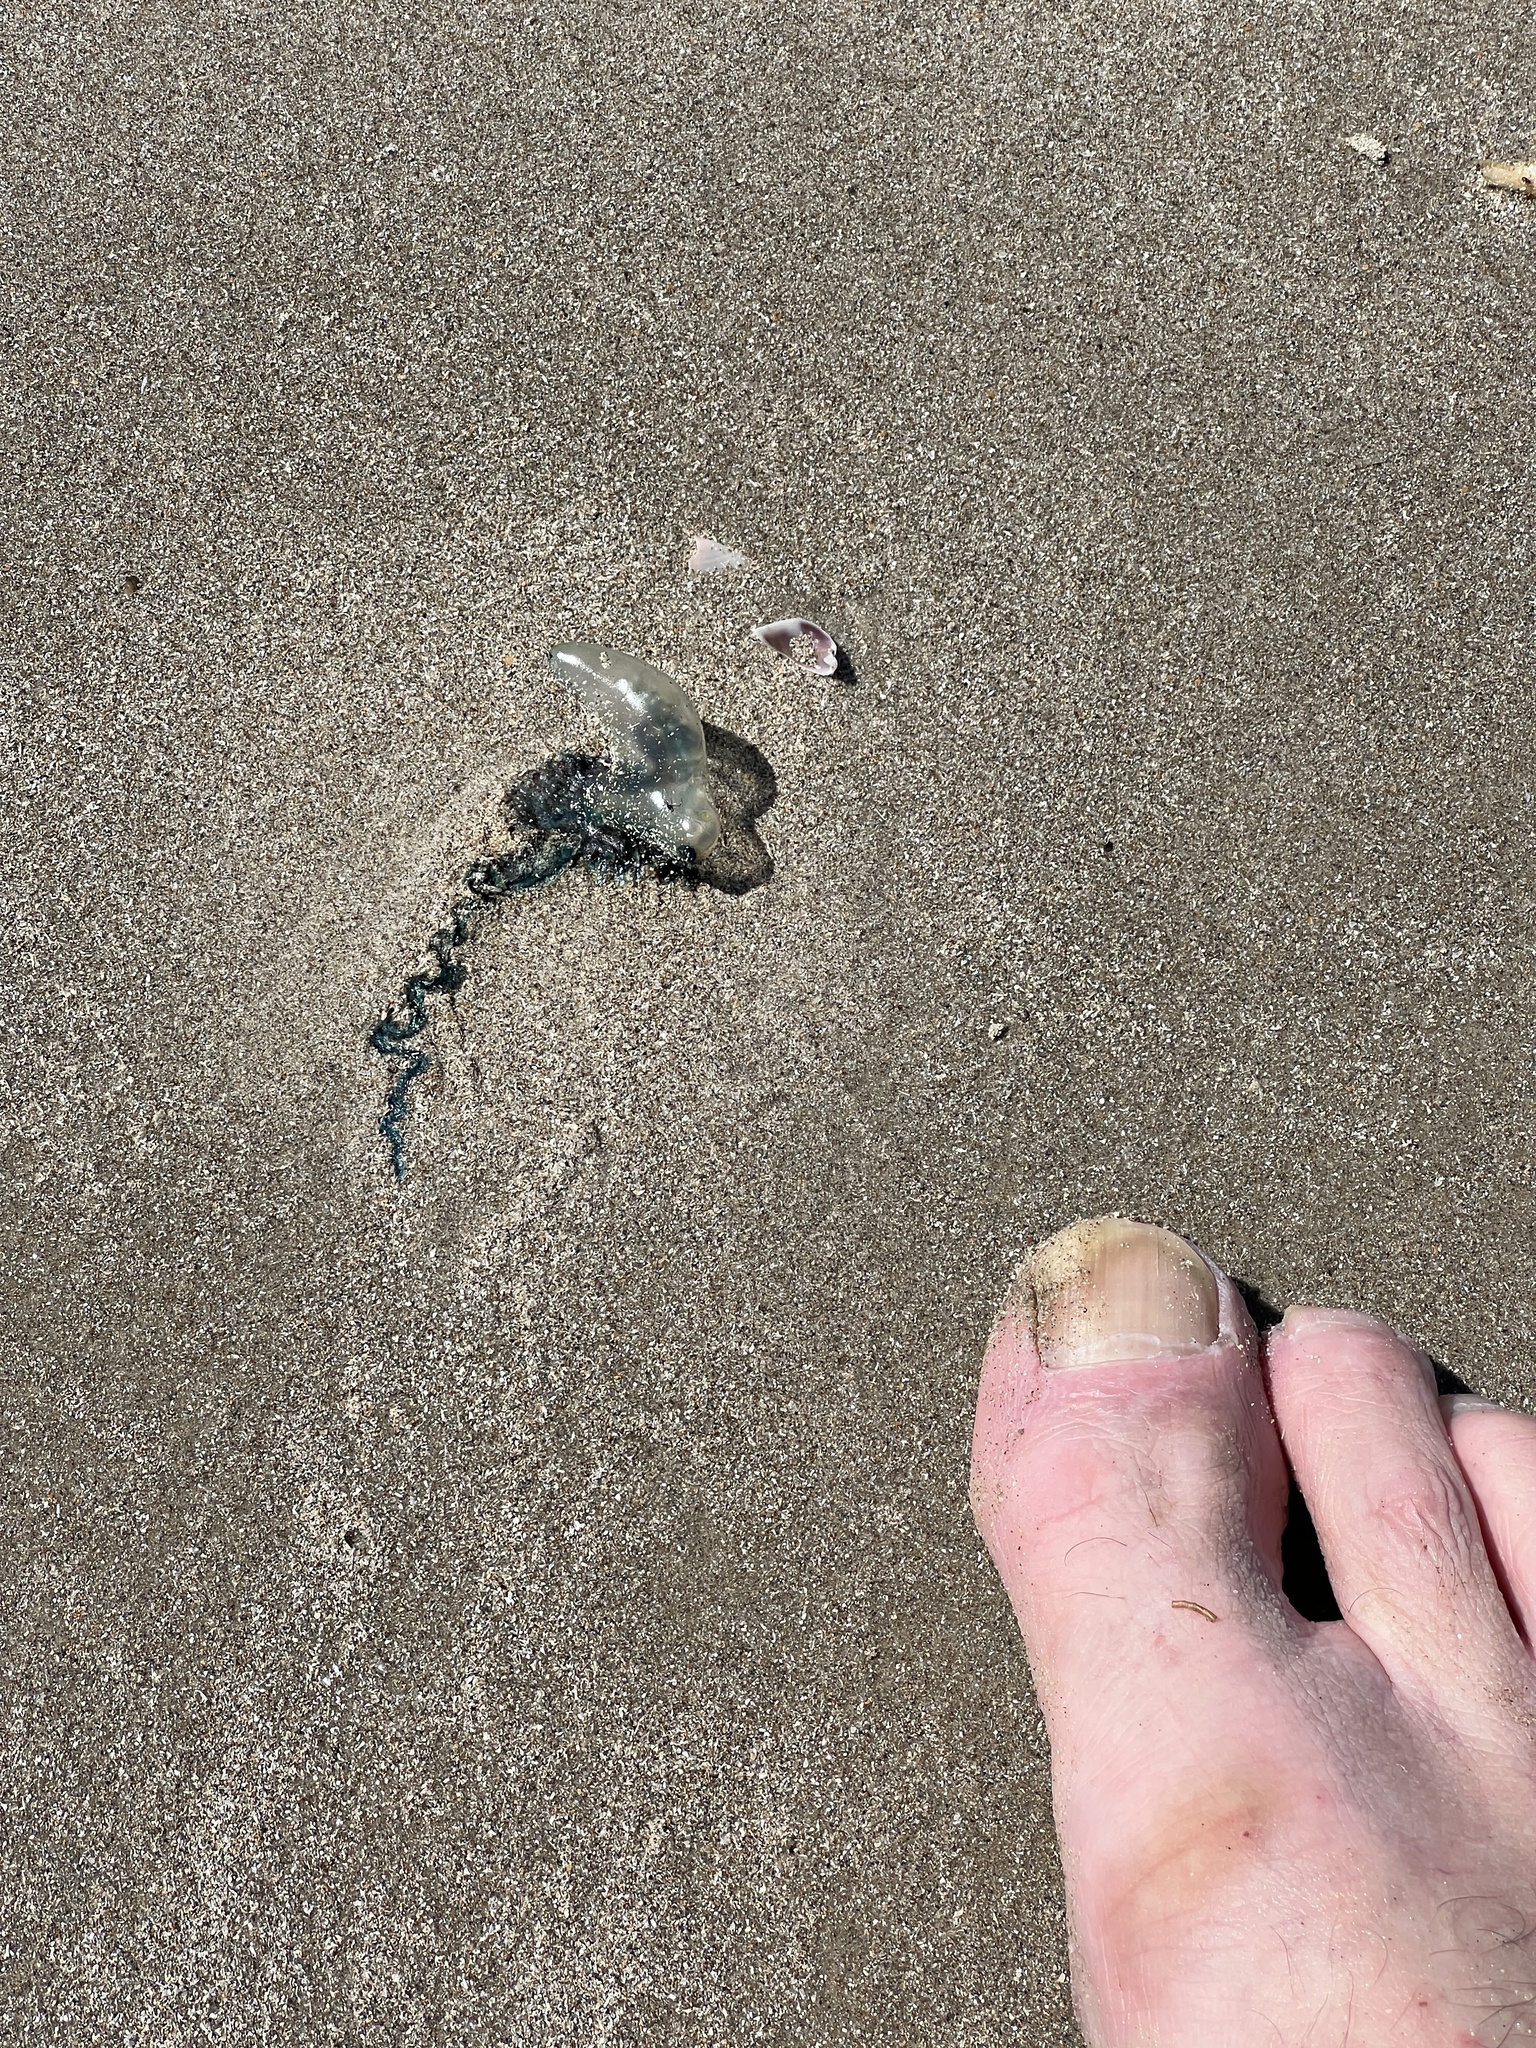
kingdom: Animalia
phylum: Cnidaria
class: Hydrozoa
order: Siphonophorae
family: Physaliidae
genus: Physalia
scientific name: Physalia physalis
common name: Portuguese man-of-war
